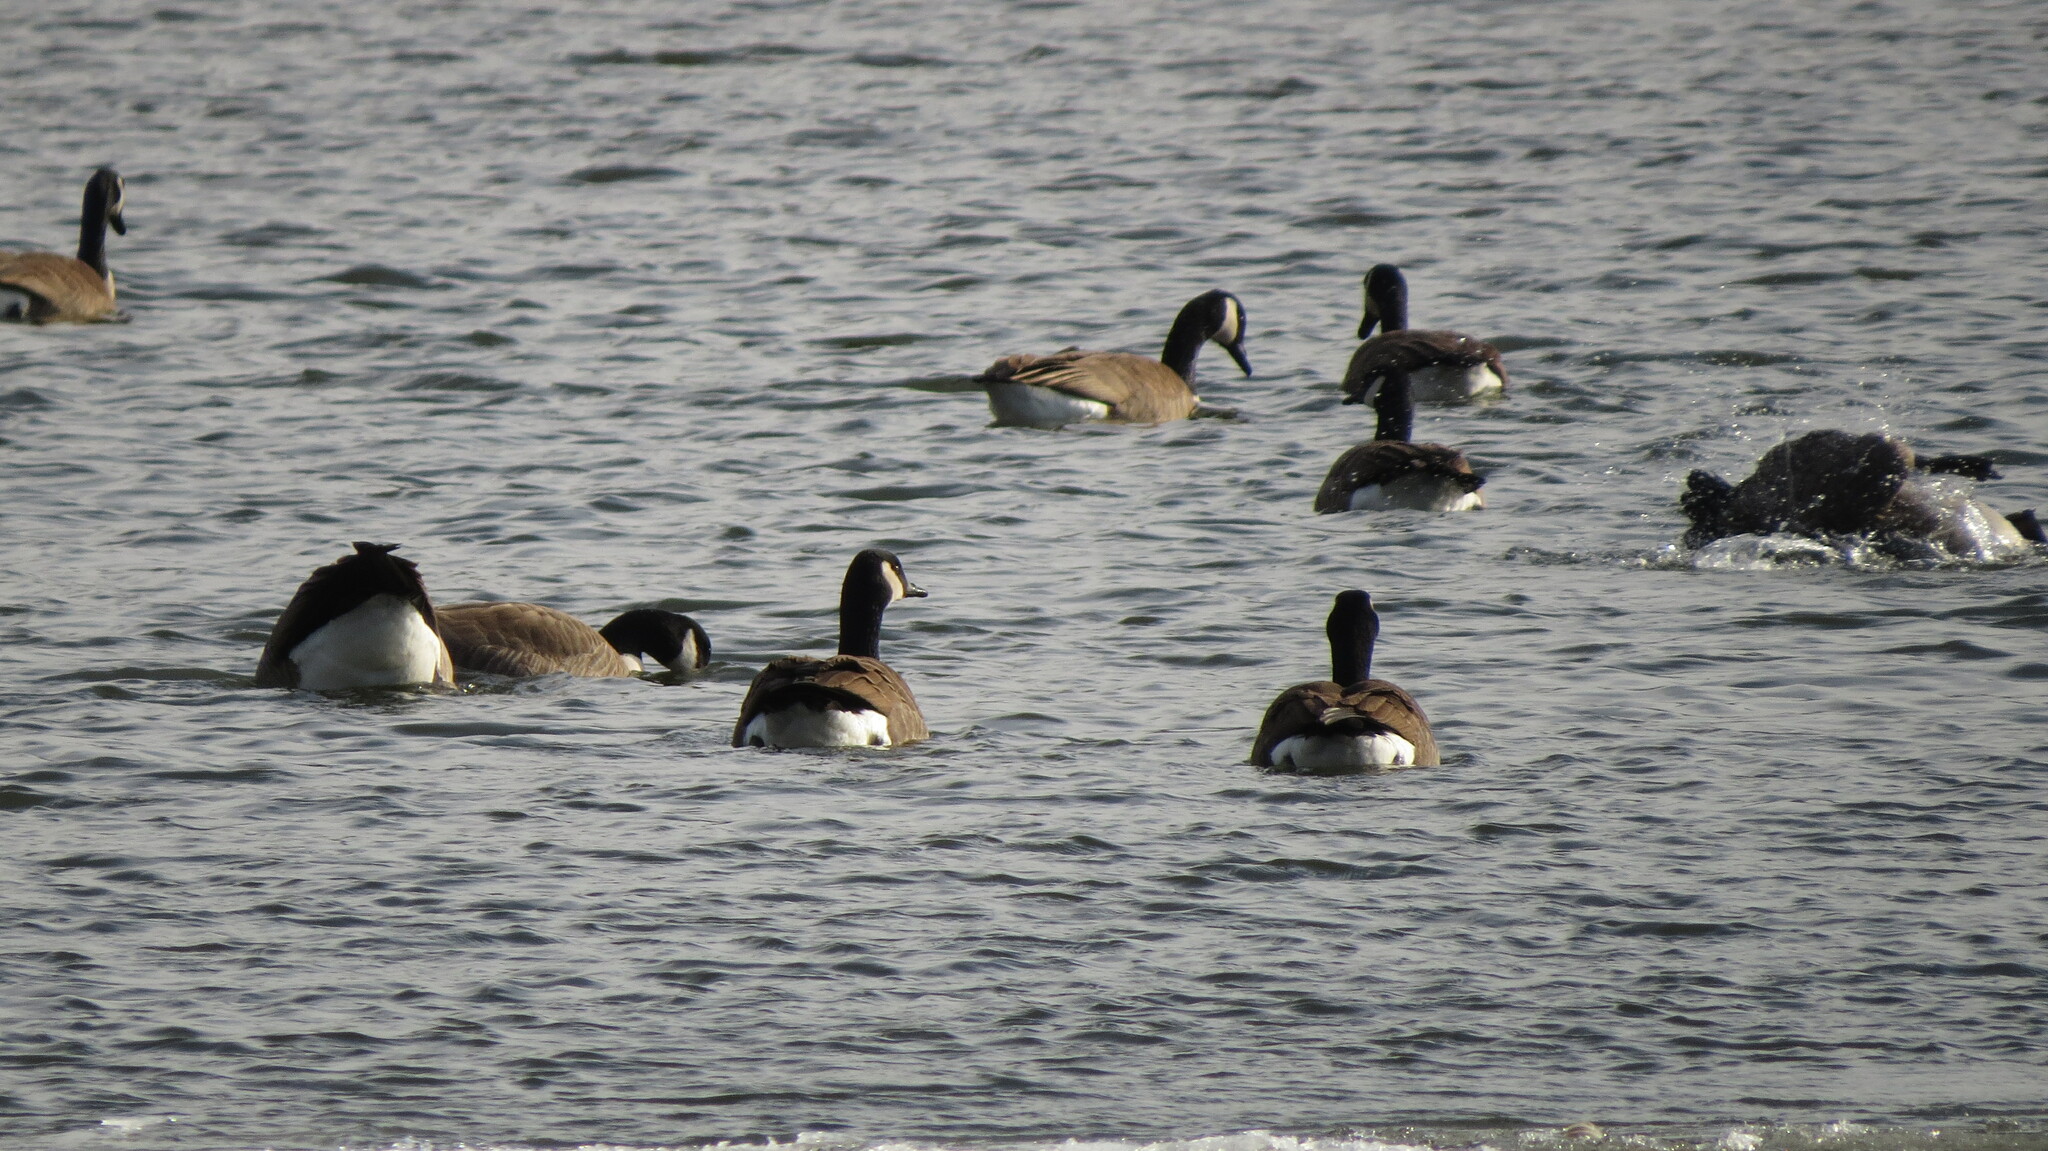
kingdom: Animalia
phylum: Chordata
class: Aves
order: Anseriformes
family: Anatidae
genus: Branta
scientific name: Branta canadensis
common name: Canada goose
